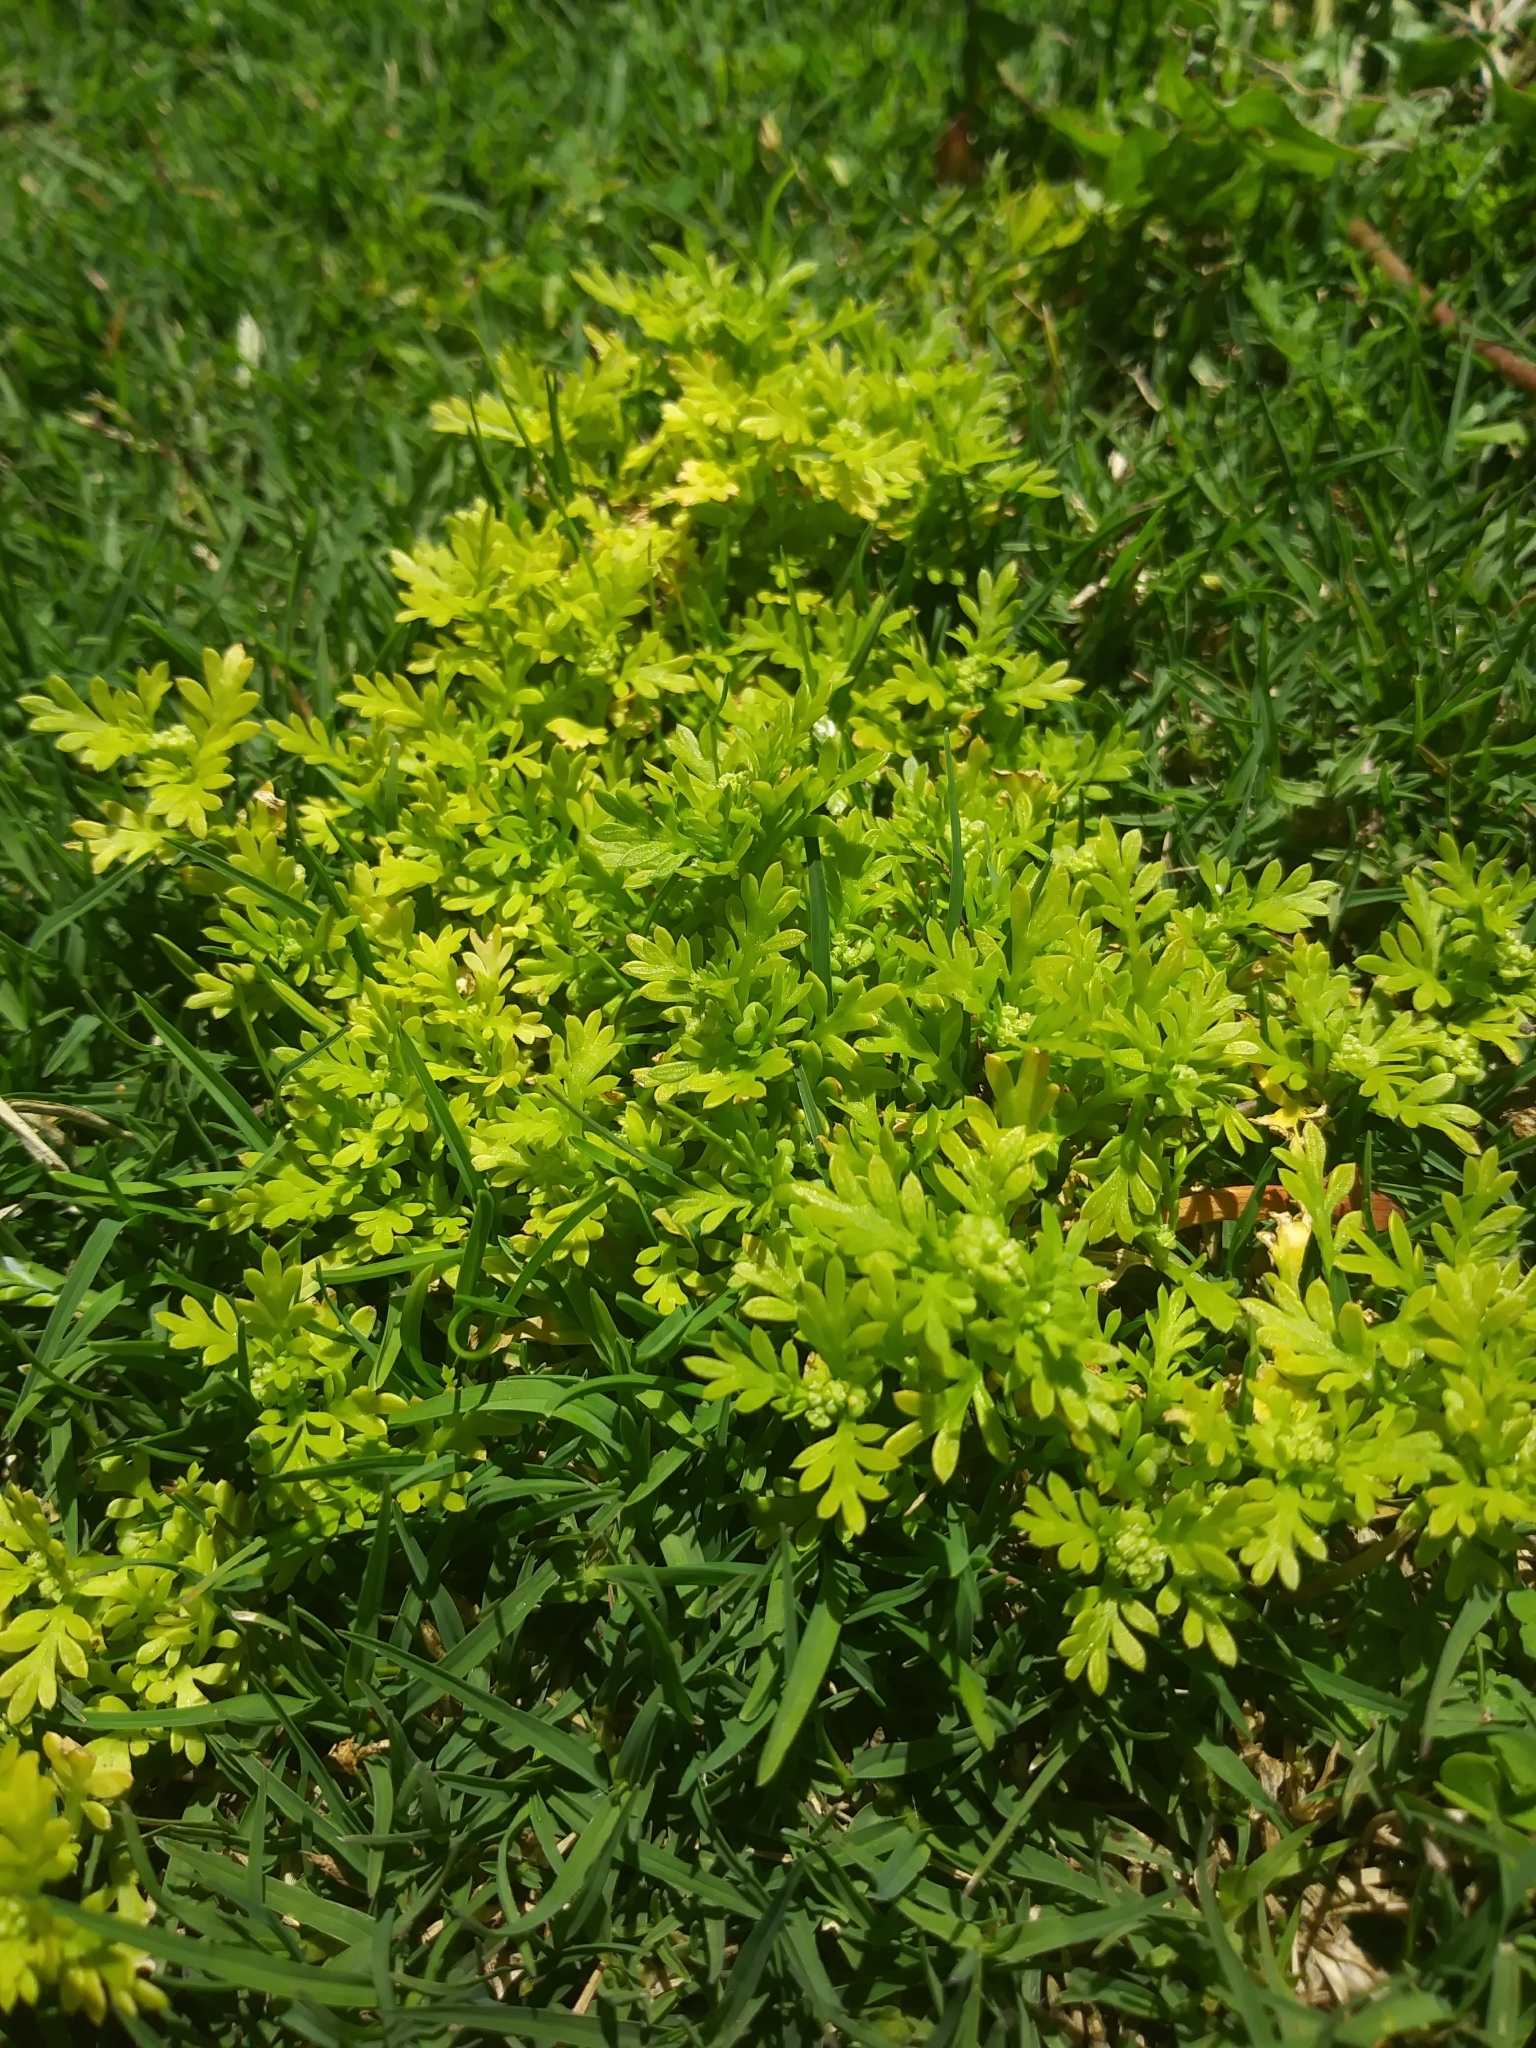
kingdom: Plantae
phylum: Tracheophyta
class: Magnoliopsida
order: Asterales
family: Asteraceae
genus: Cotula
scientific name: Cotula australis
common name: Australian waterbuttons
